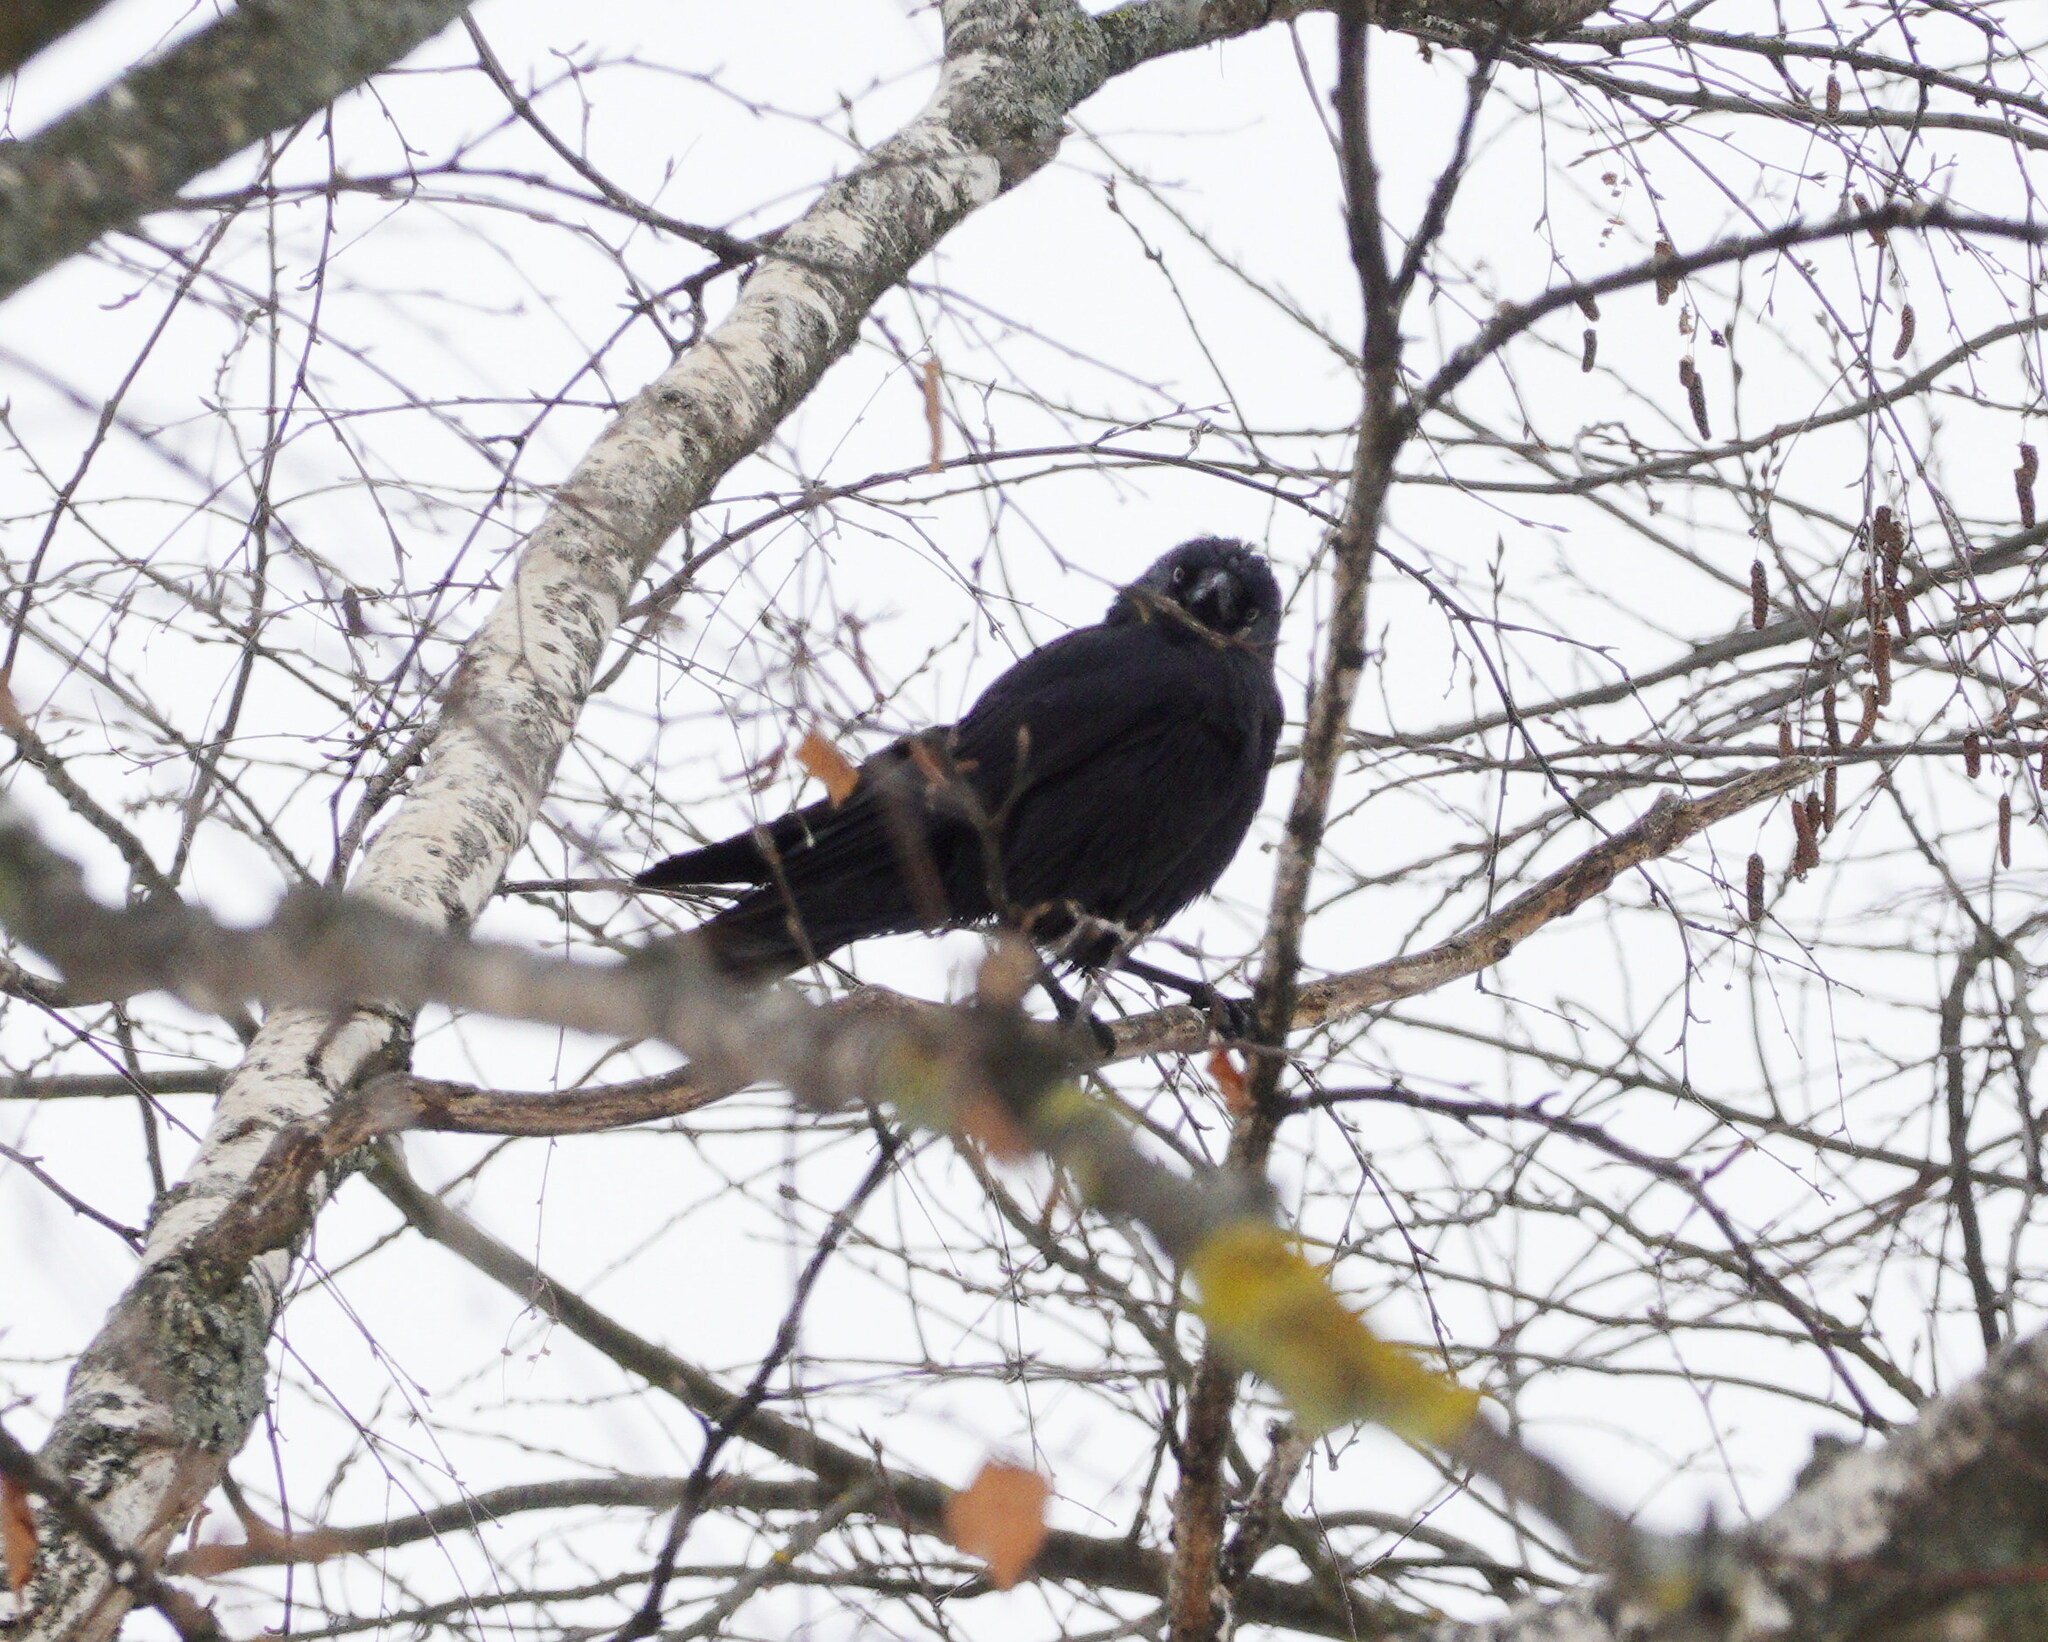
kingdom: Animalia
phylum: Chordata
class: Aves
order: Passeriformes
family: Corvidae
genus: Coloeus
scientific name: Coloeus monedula
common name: Western jackdaw
